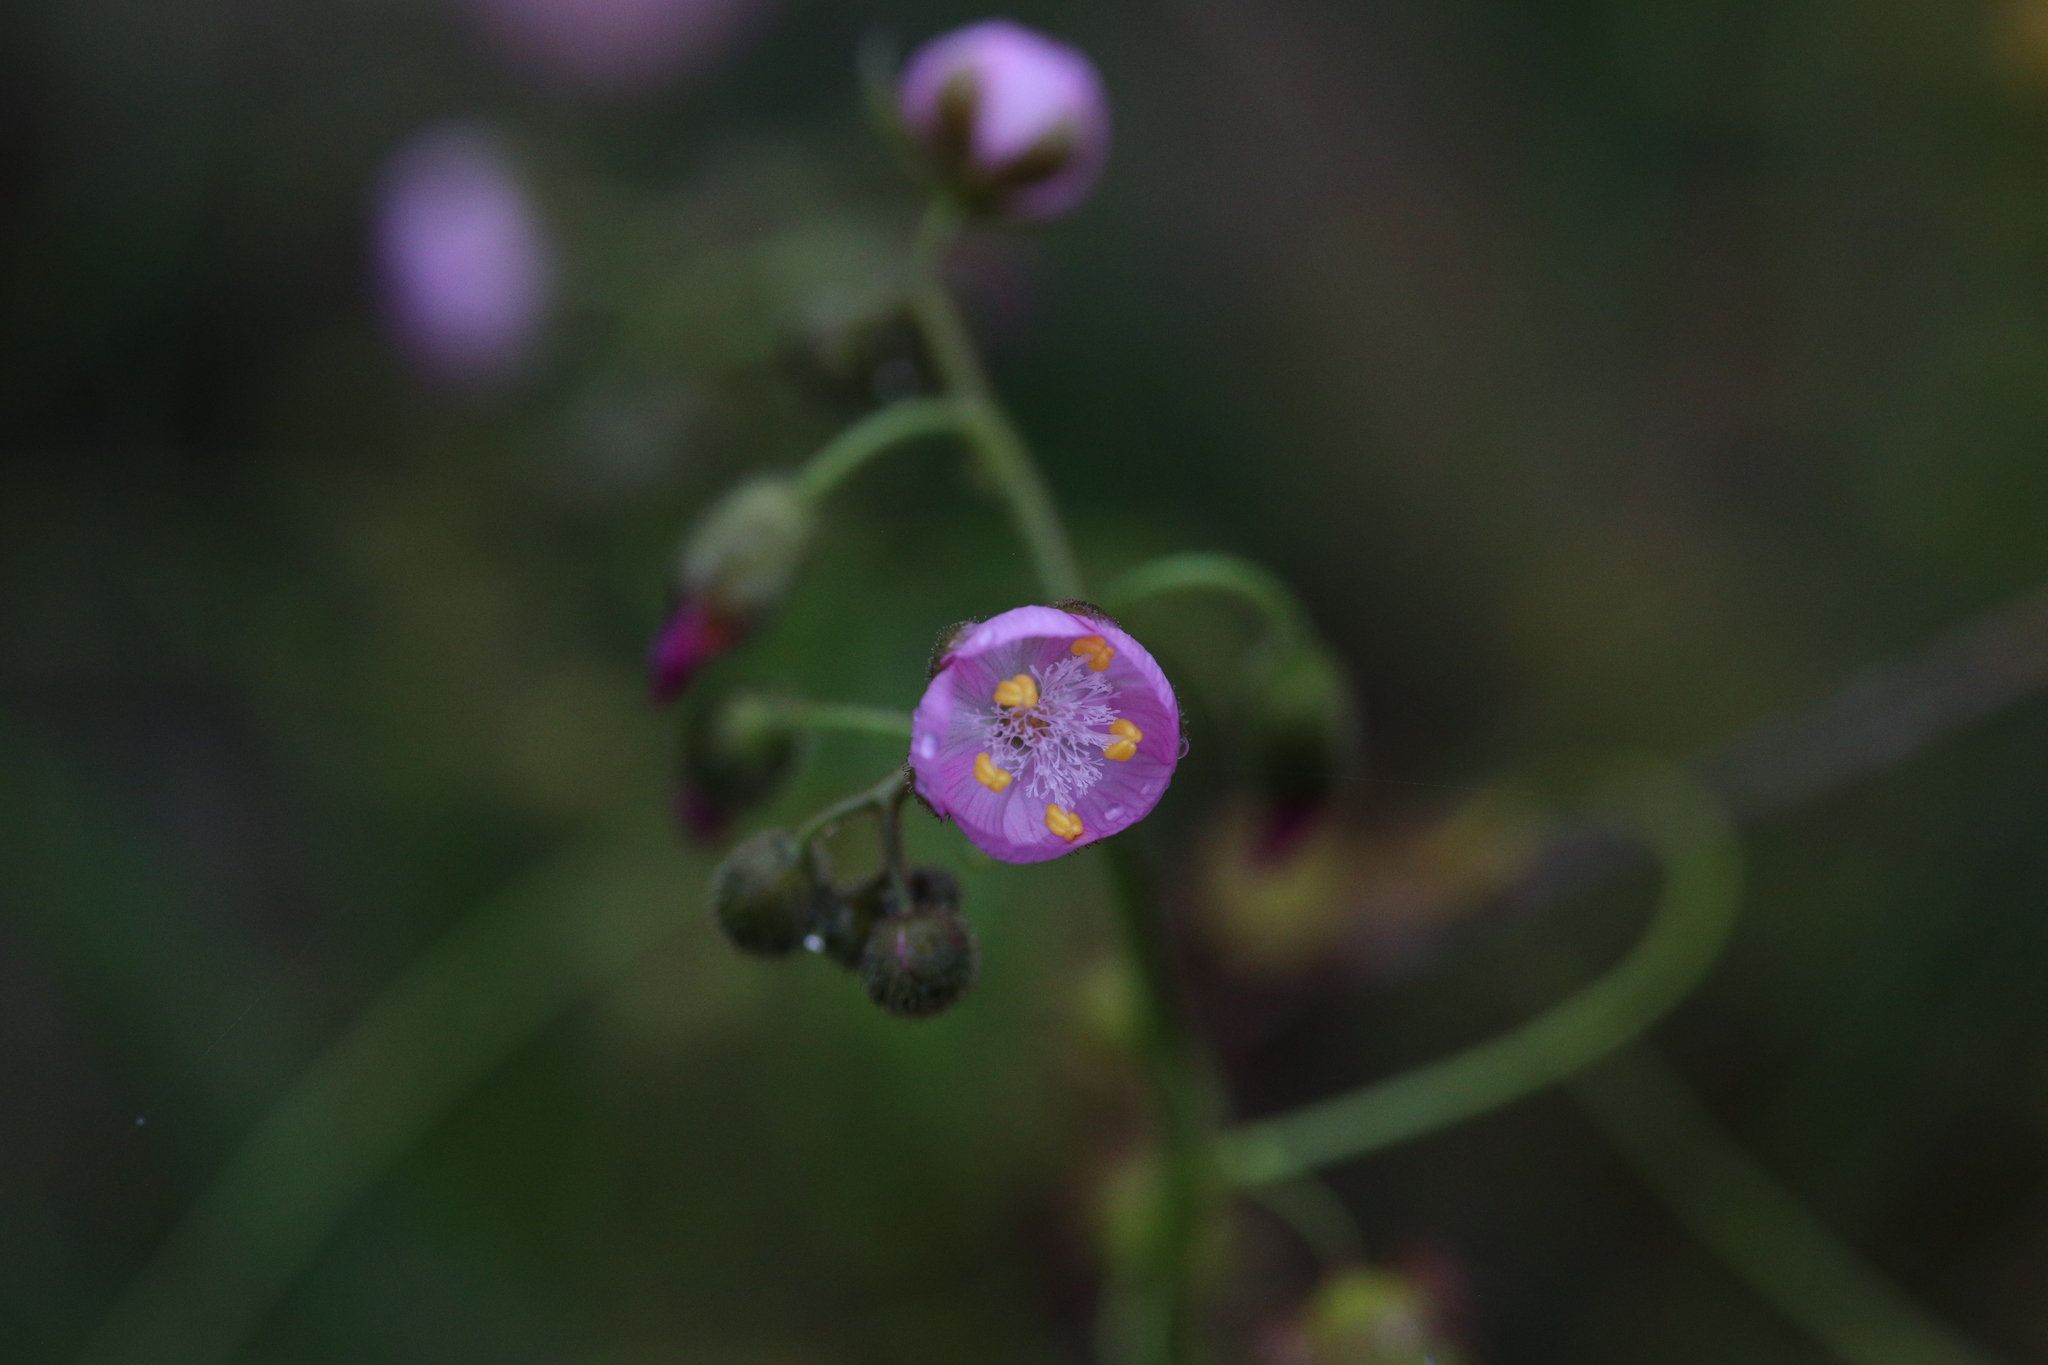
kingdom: Plantae
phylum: Tracheophyta
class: Magnoliopsida
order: Caryophyllales
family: Droseraceae
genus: Drosera
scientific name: Drosera stricticaulis
